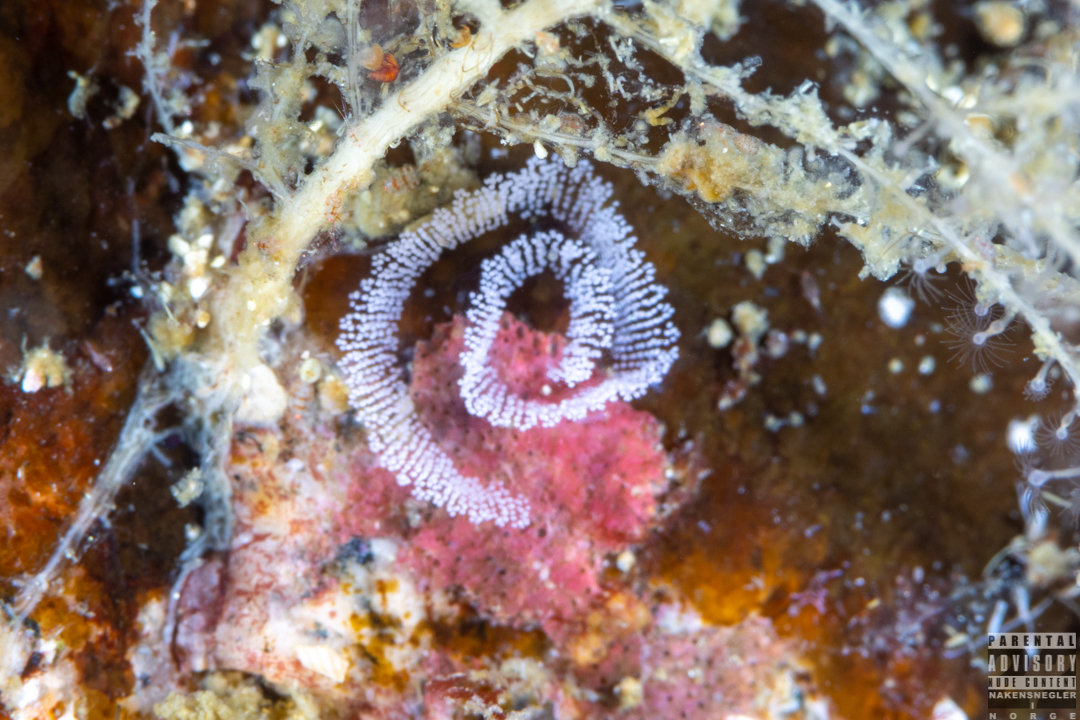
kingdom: Animalia
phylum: Mollusca
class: Gastropoda
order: Nudibranchia
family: Eubranchidae
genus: Amphorina
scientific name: Amphorina pallida
